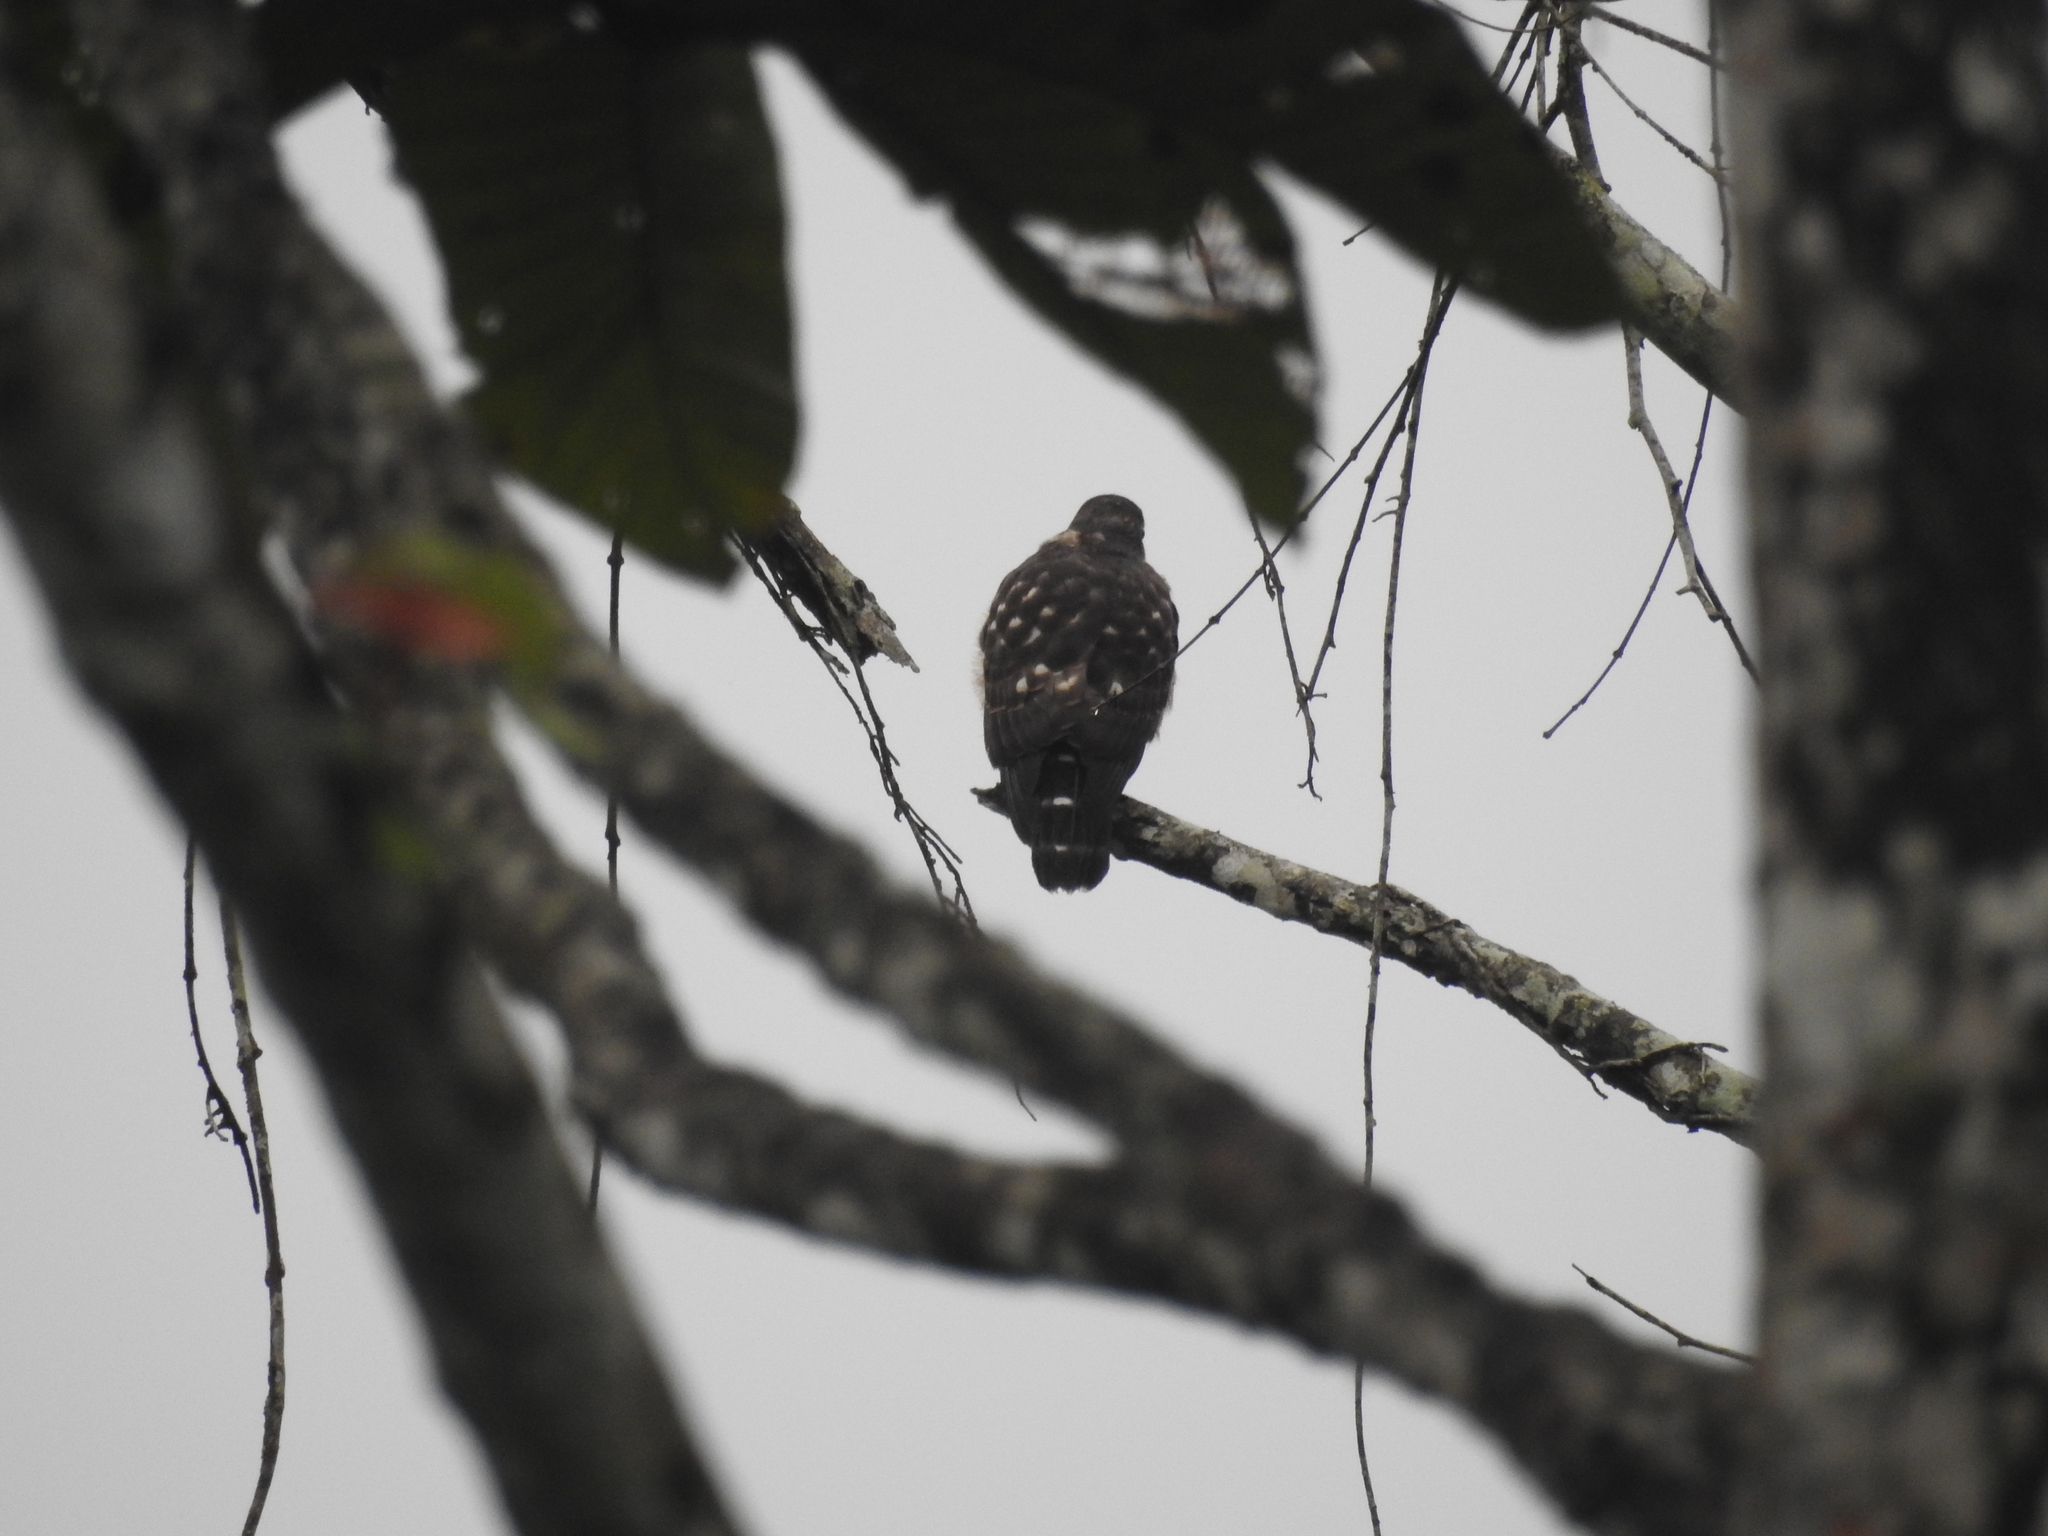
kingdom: Animalia
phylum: Chordata
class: Aves
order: Accipitriformes
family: Accipitridae
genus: Harpagus
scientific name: Harpagus bidentatus
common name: Double-toothed kite
